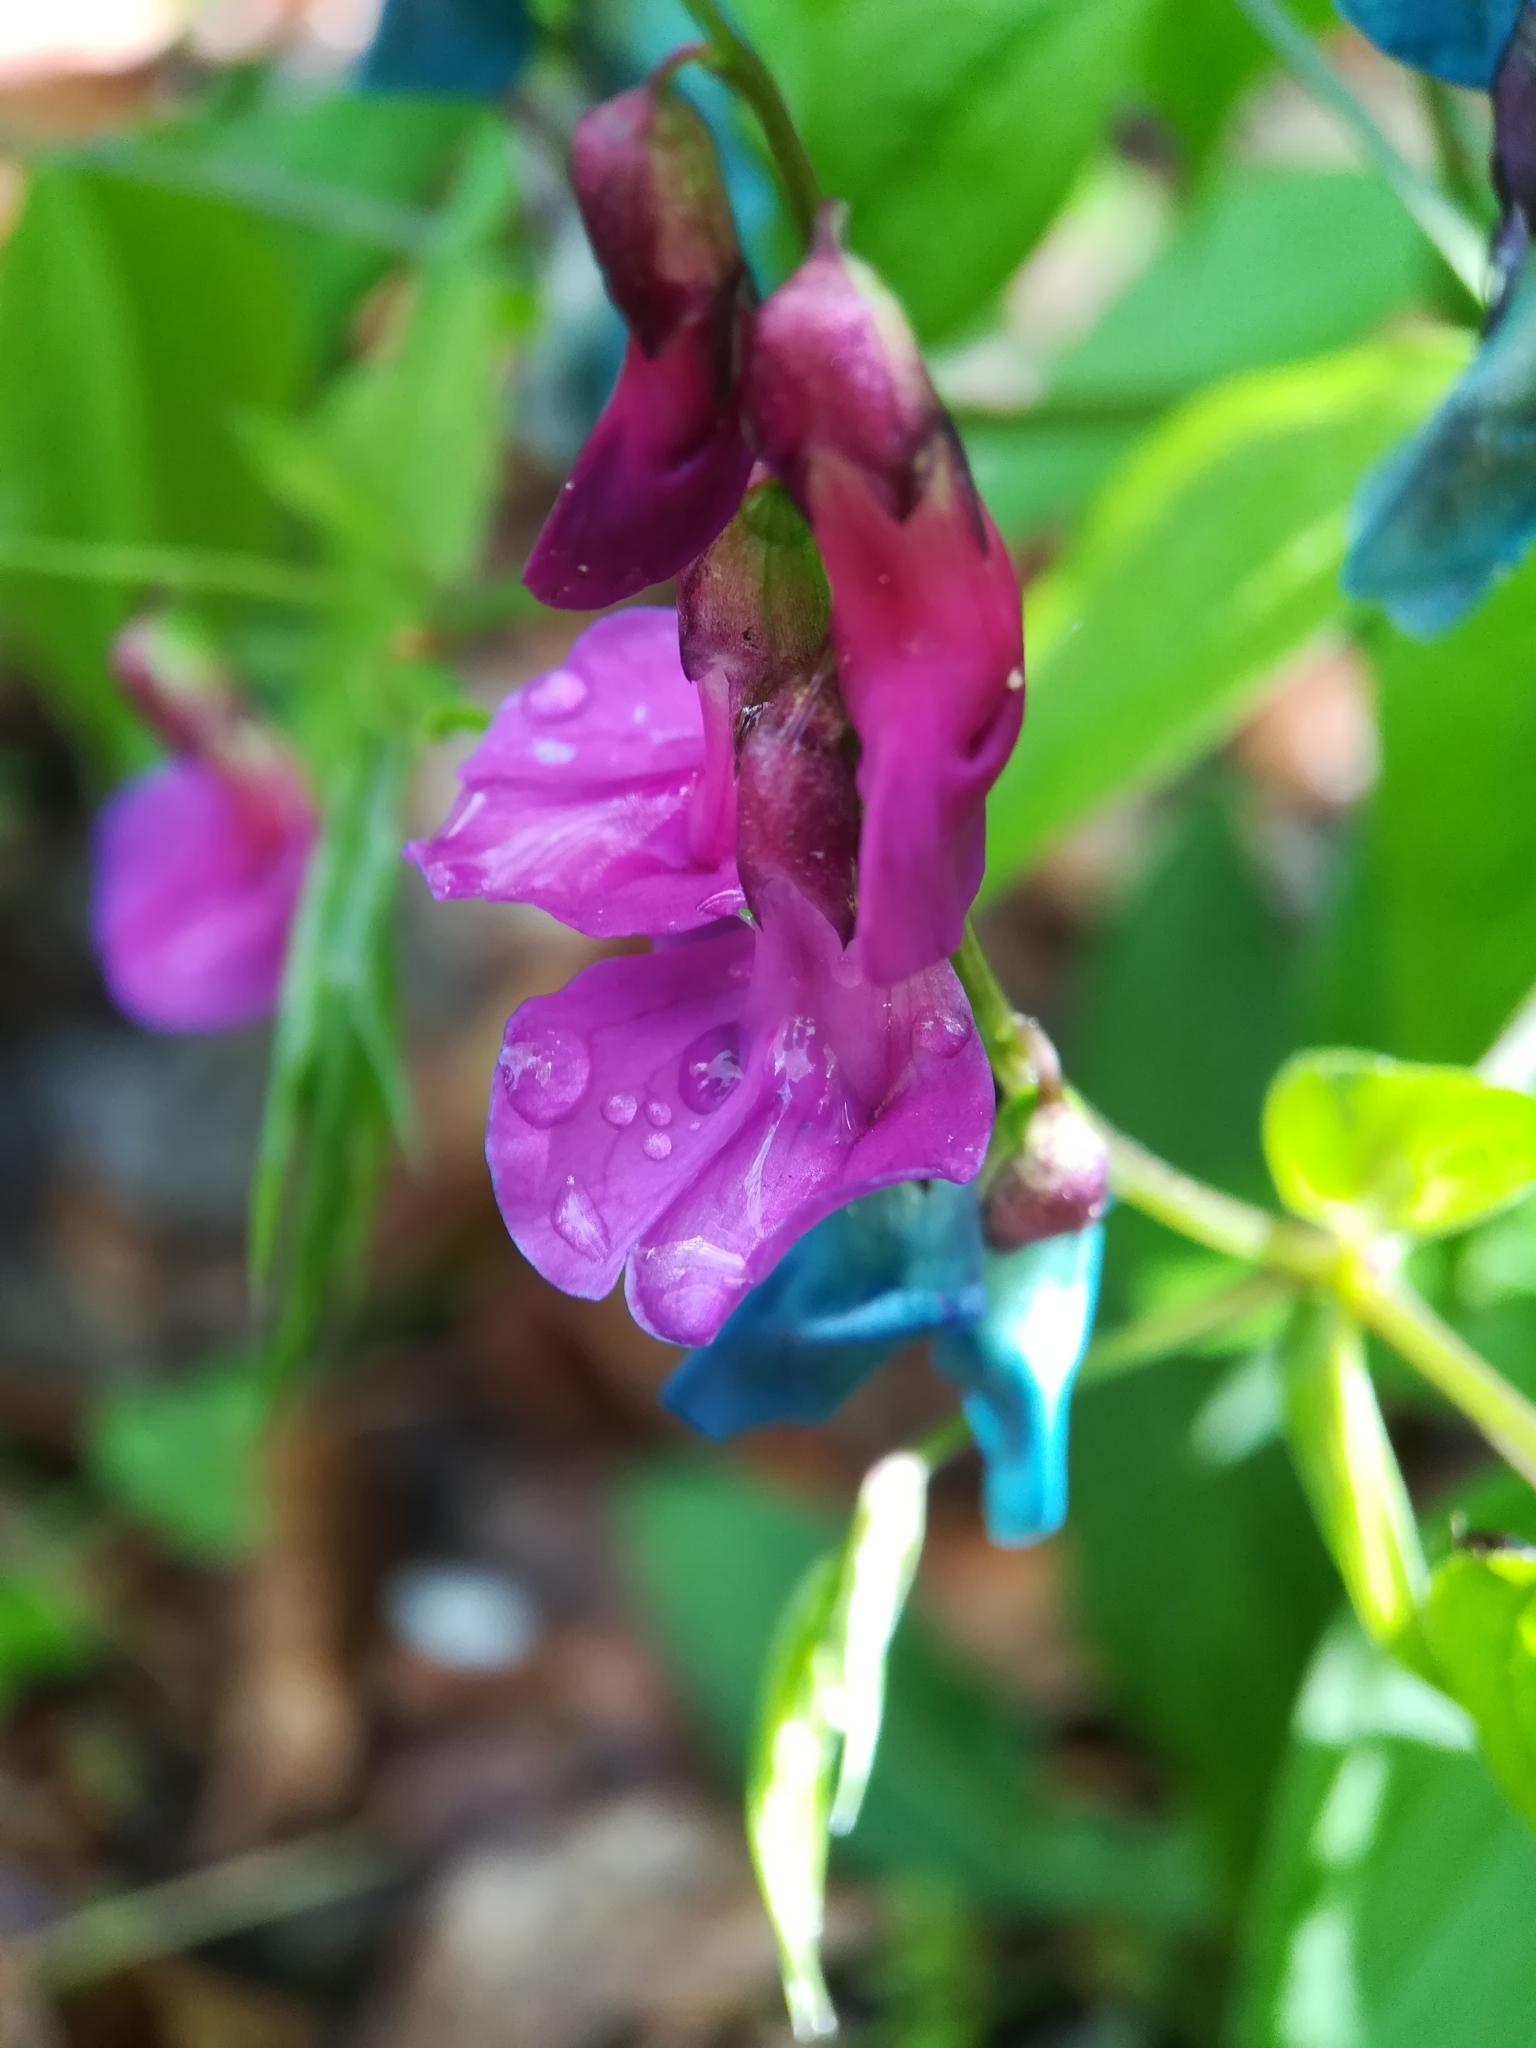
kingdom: Plantae
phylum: Tracheophyta
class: Magnoliopsida
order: Fabales
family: Fabaceae
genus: Lathyrus
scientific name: Lathyrus vernus
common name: Spring pea
